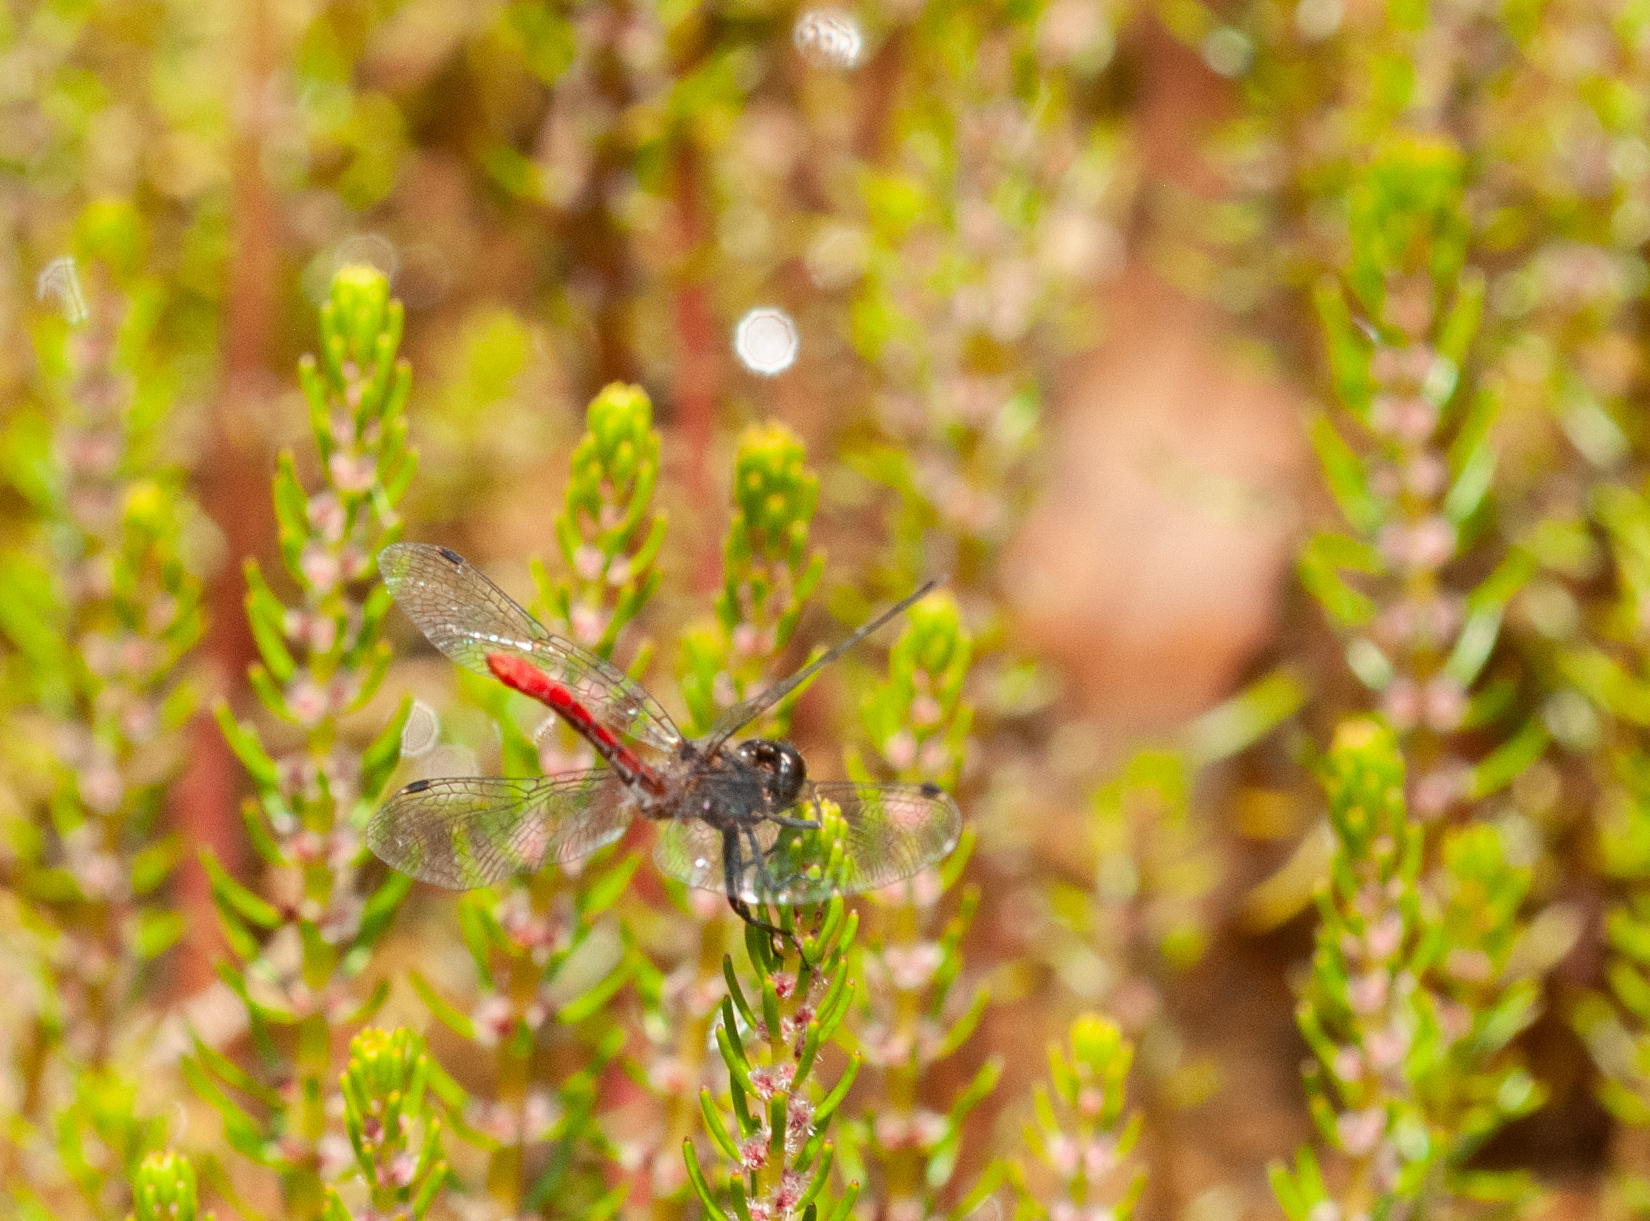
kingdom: Animalia
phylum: Arthropoda
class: Insecta
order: Odonata
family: Libellulidae
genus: Nannophya
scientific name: Nannophya dalei
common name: Eastern pygmyfly
